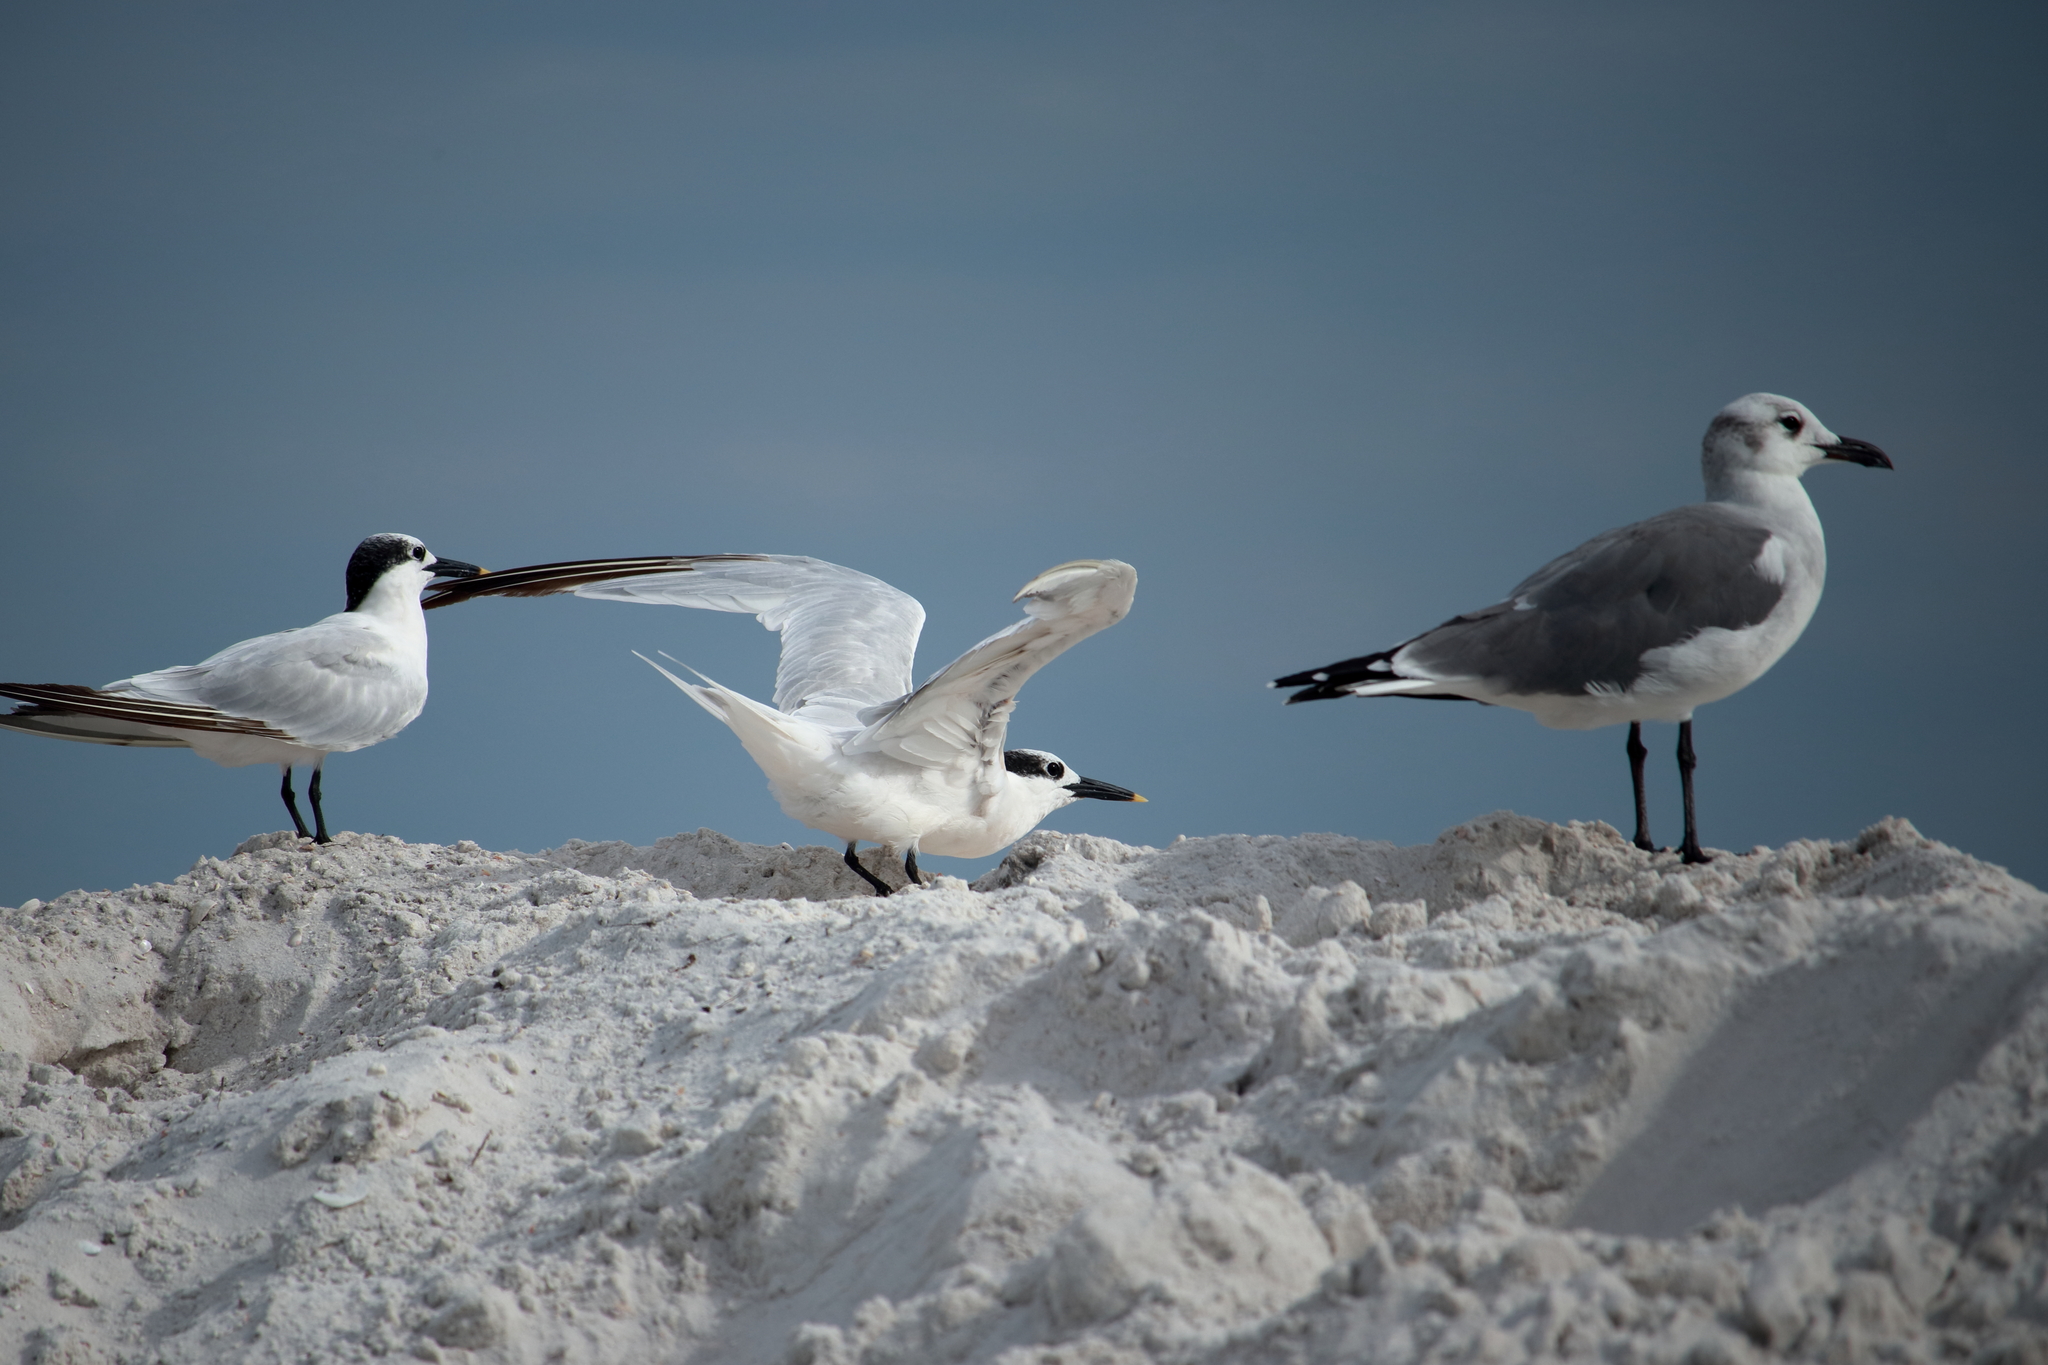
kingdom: Animalia
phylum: Chordata
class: Aves
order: Charadriiformes
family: Laridae
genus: Thalasseus
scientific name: Thalasseus sandvicensis
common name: Sandwich tern
